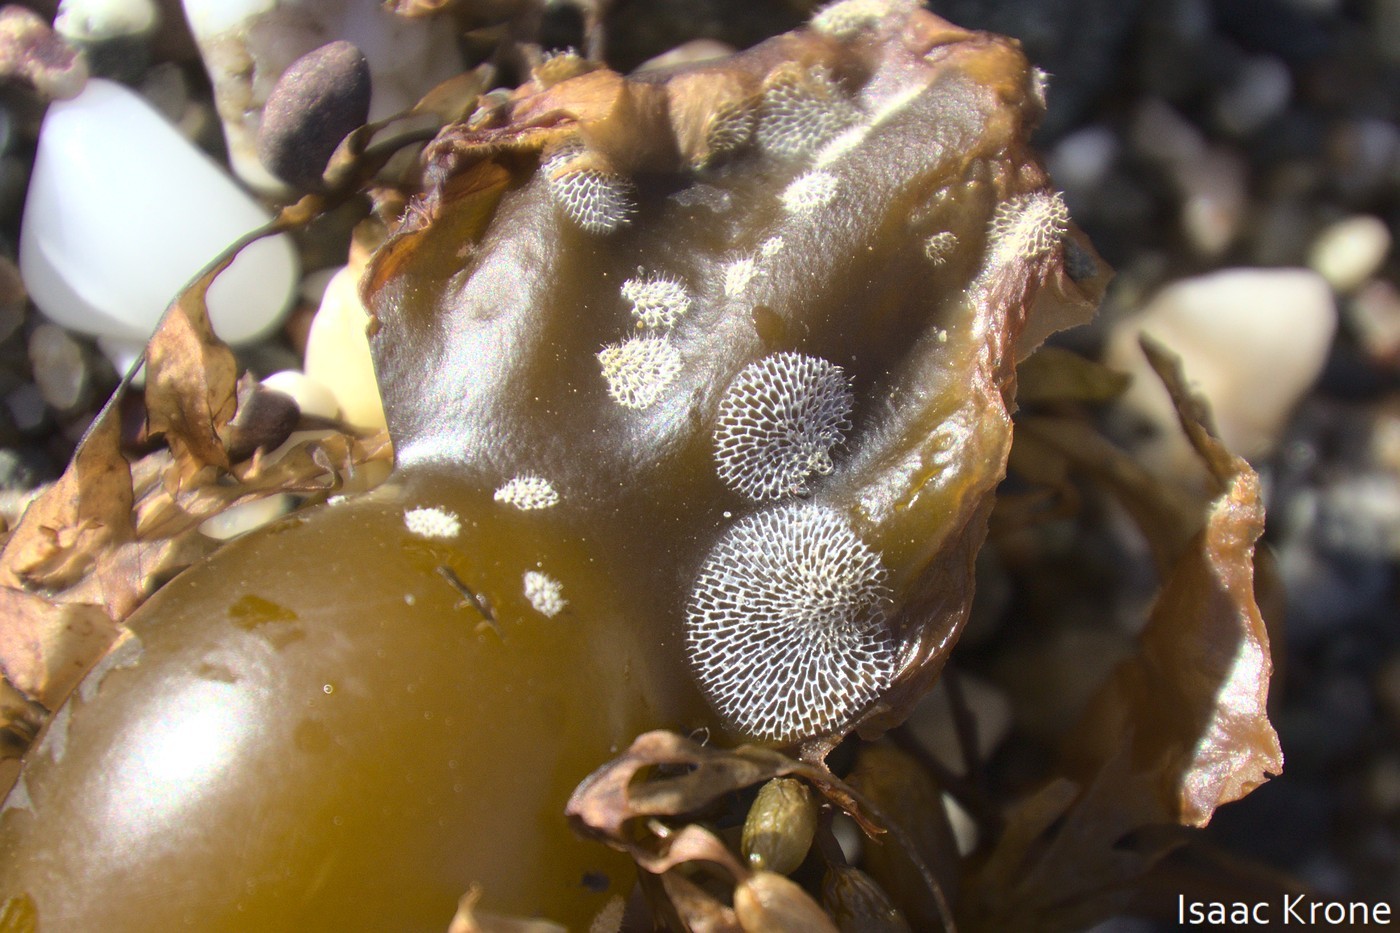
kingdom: Animalia
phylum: Bryozoa
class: Gymnolaemata
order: Cheilostomatida
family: Membraniporidae
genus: Membranipora
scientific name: Membranipora membranacea
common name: Sea mat
